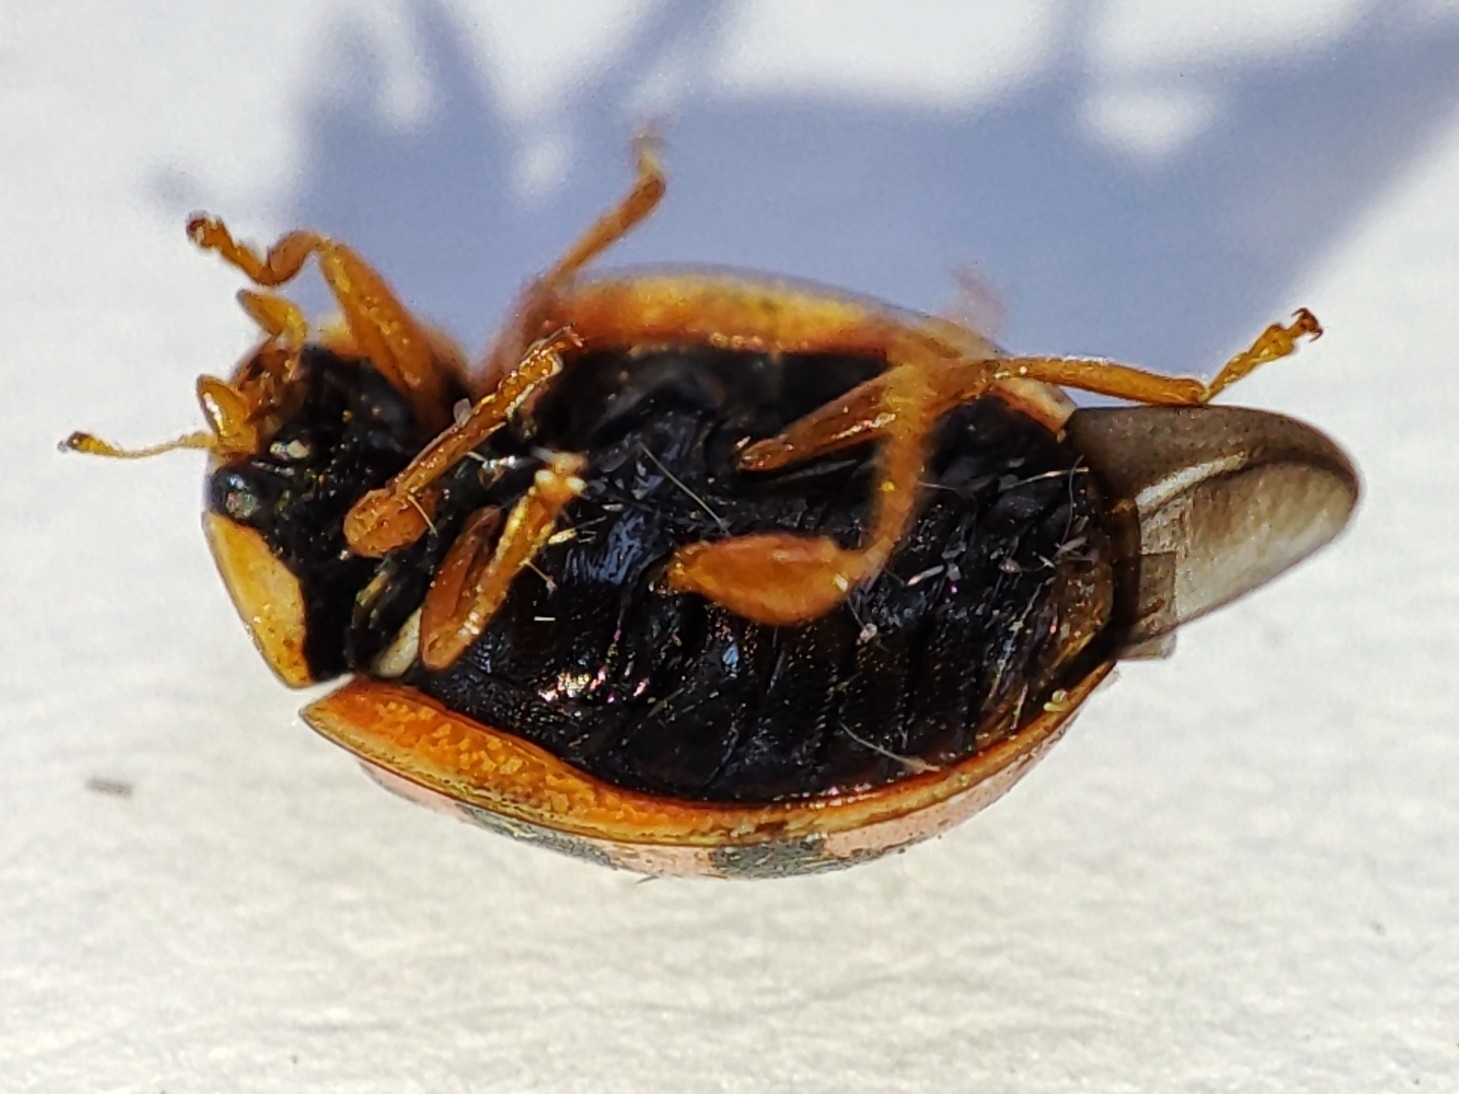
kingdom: Animalia
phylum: Arthropoda
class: Insecta
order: Coleoptera
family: Coccinellidae
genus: Oenopia
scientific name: Oenopia conglobata
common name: Ladybird beetle
